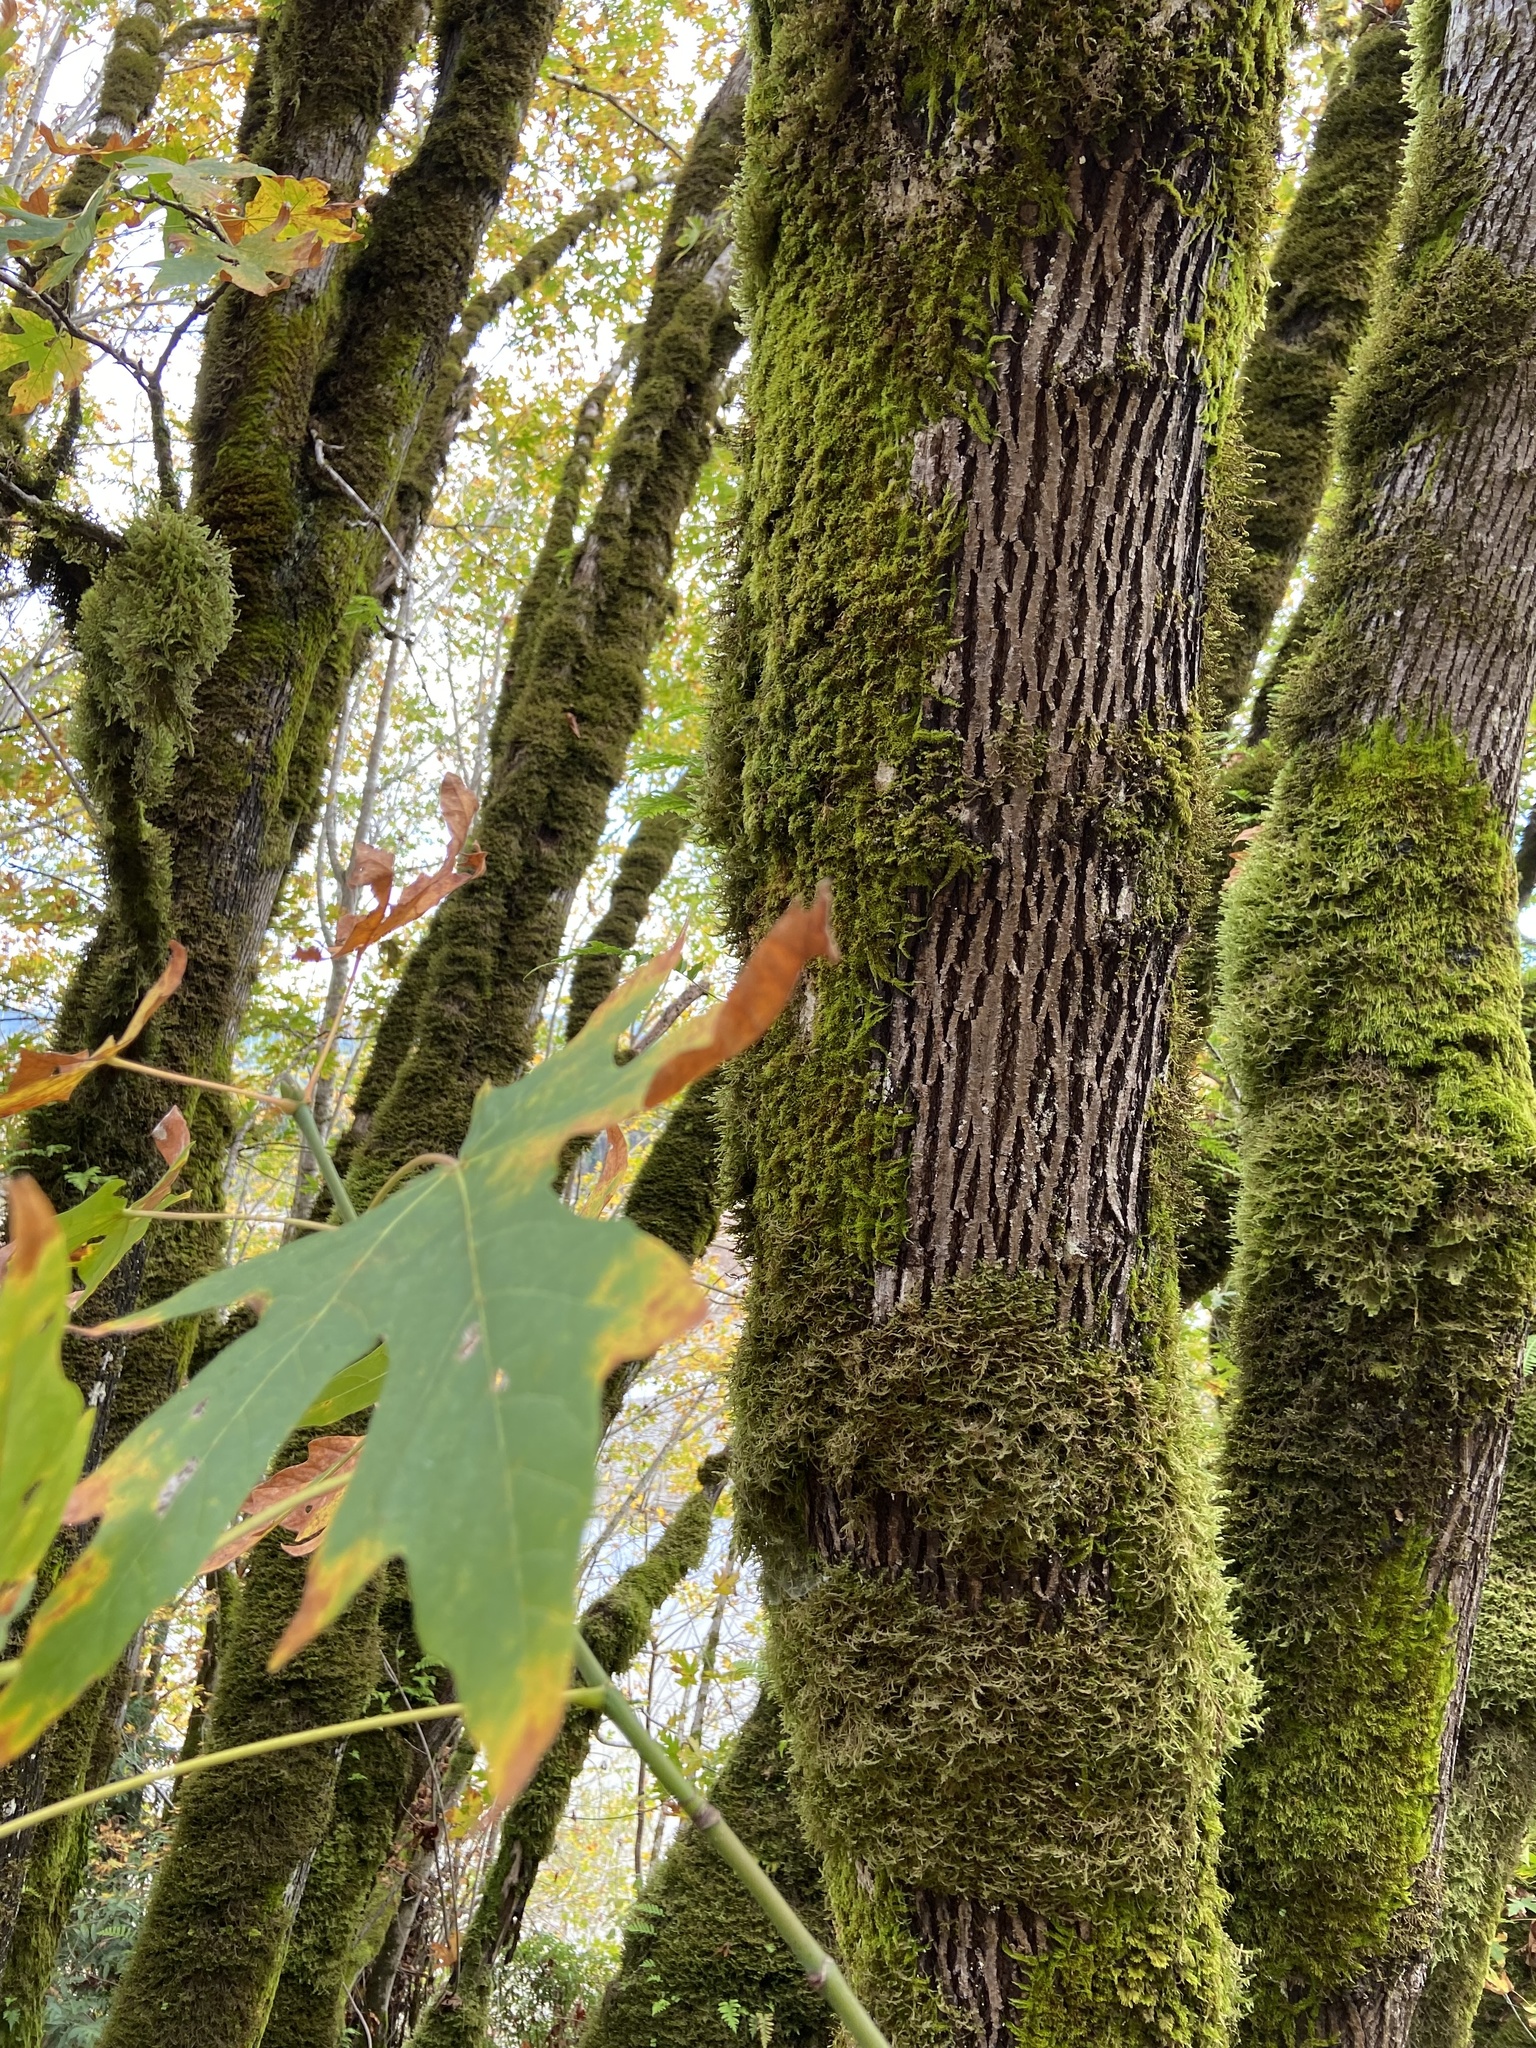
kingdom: Plantae
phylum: Tracheophyta
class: Magnoliopsida
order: Sapindales
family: Sapindaceae
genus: Acer
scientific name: Acer macrophyllum
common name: Oregon maple
